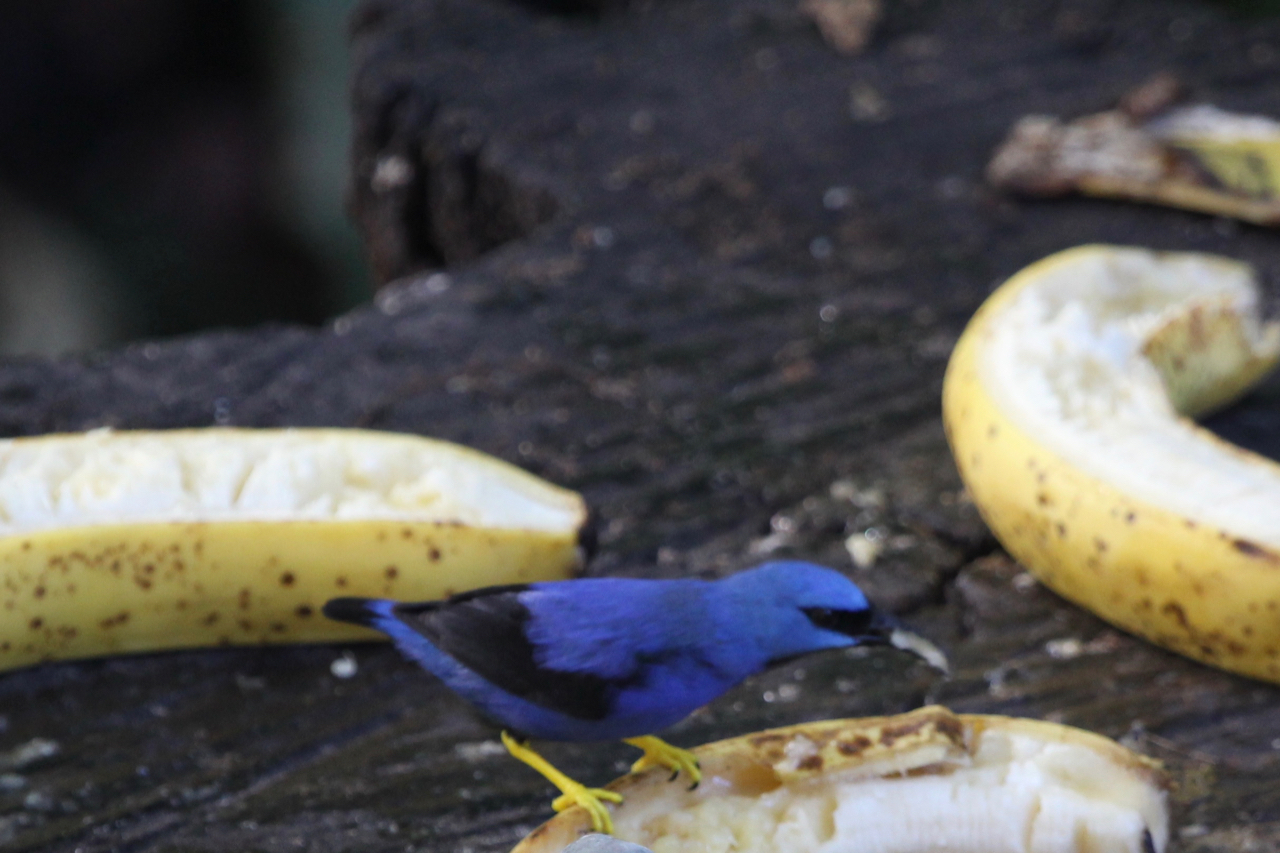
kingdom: Animalia
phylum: Chordata
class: Aves
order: Passeriformes
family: Thraupidae
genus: Cyanerpes
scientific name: Cyanerpes lucidus
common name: Shining honeycreeper
